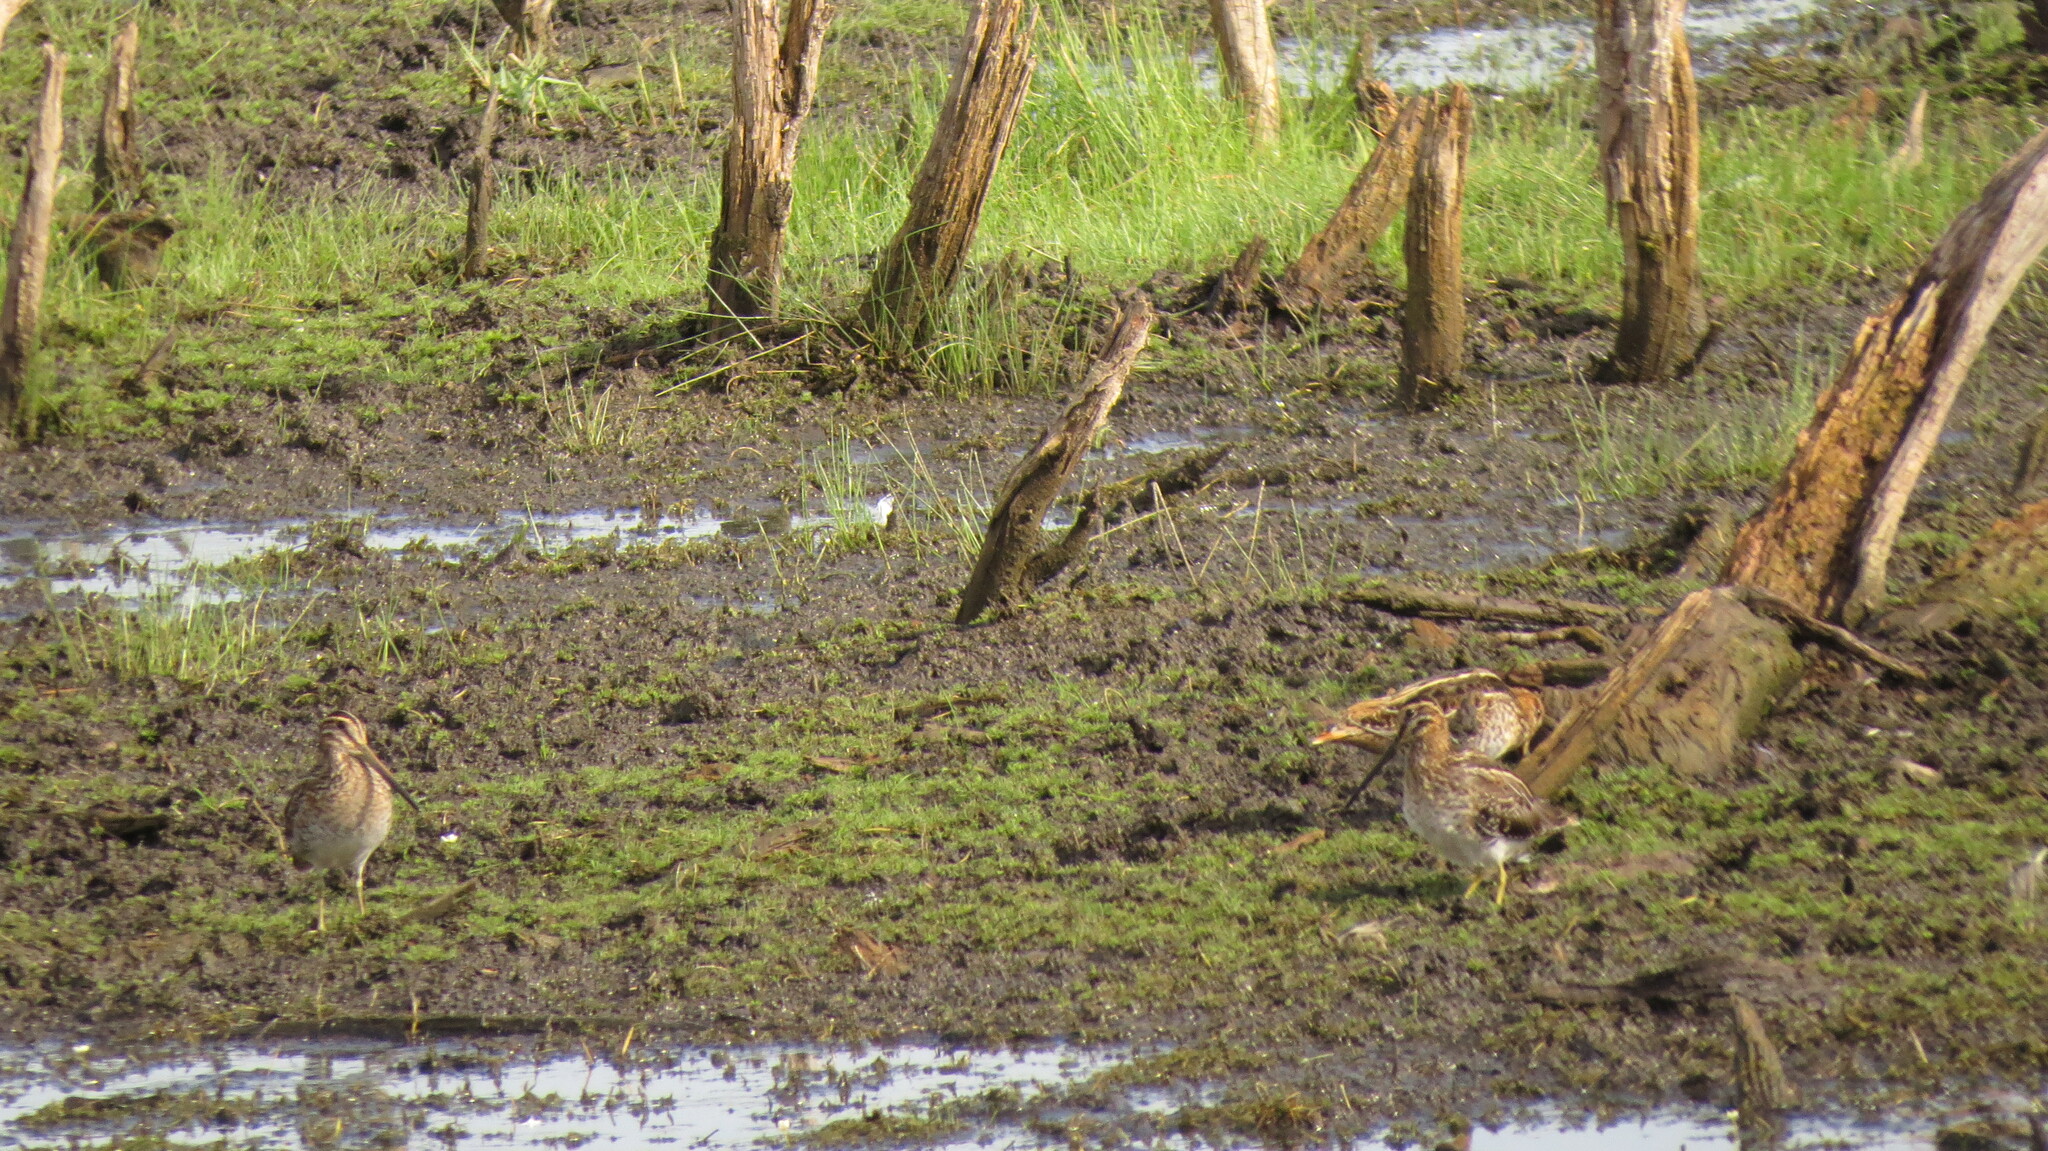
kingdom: Animalia
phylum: Chordata
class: Aves
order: Charadriiformes
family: Scolopacidae
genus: Gallinago
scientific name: Gallinago delicata
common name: Wilson's snipe
